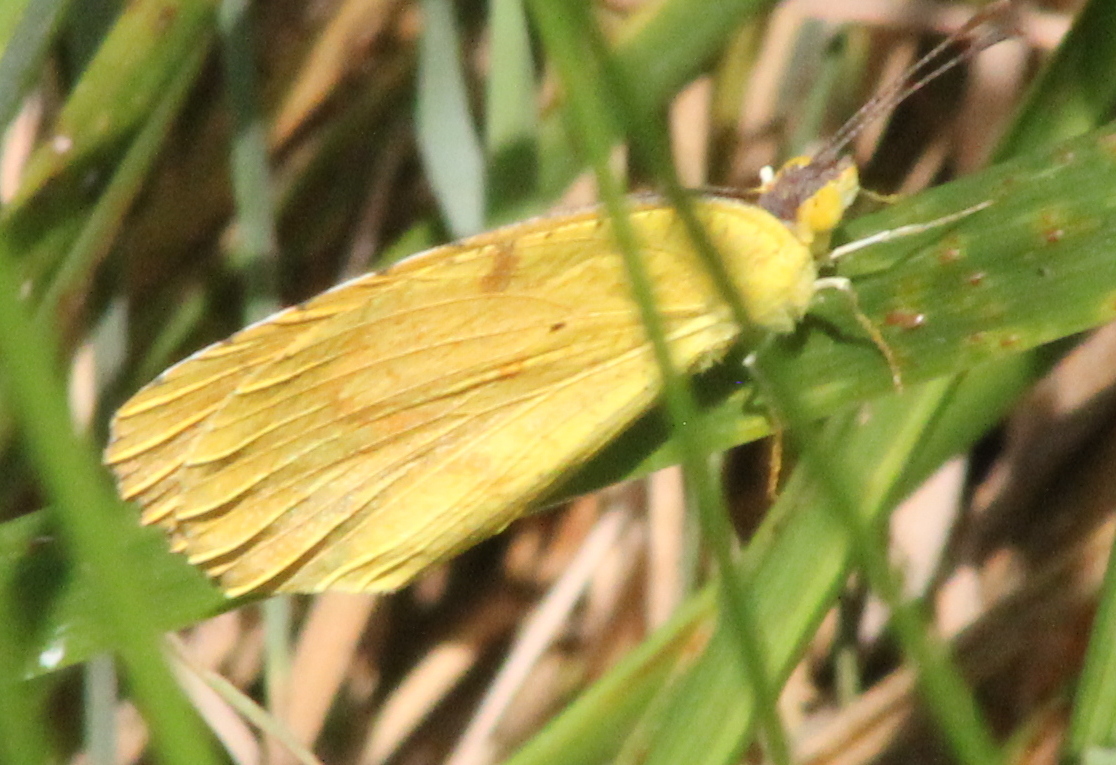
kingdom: Animalia
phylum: Arthropoda
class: Insecta
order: Lepidoptera
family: Pieridae
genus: Abaeis
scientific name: Abaeis nicippe
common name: Sleepy orange
